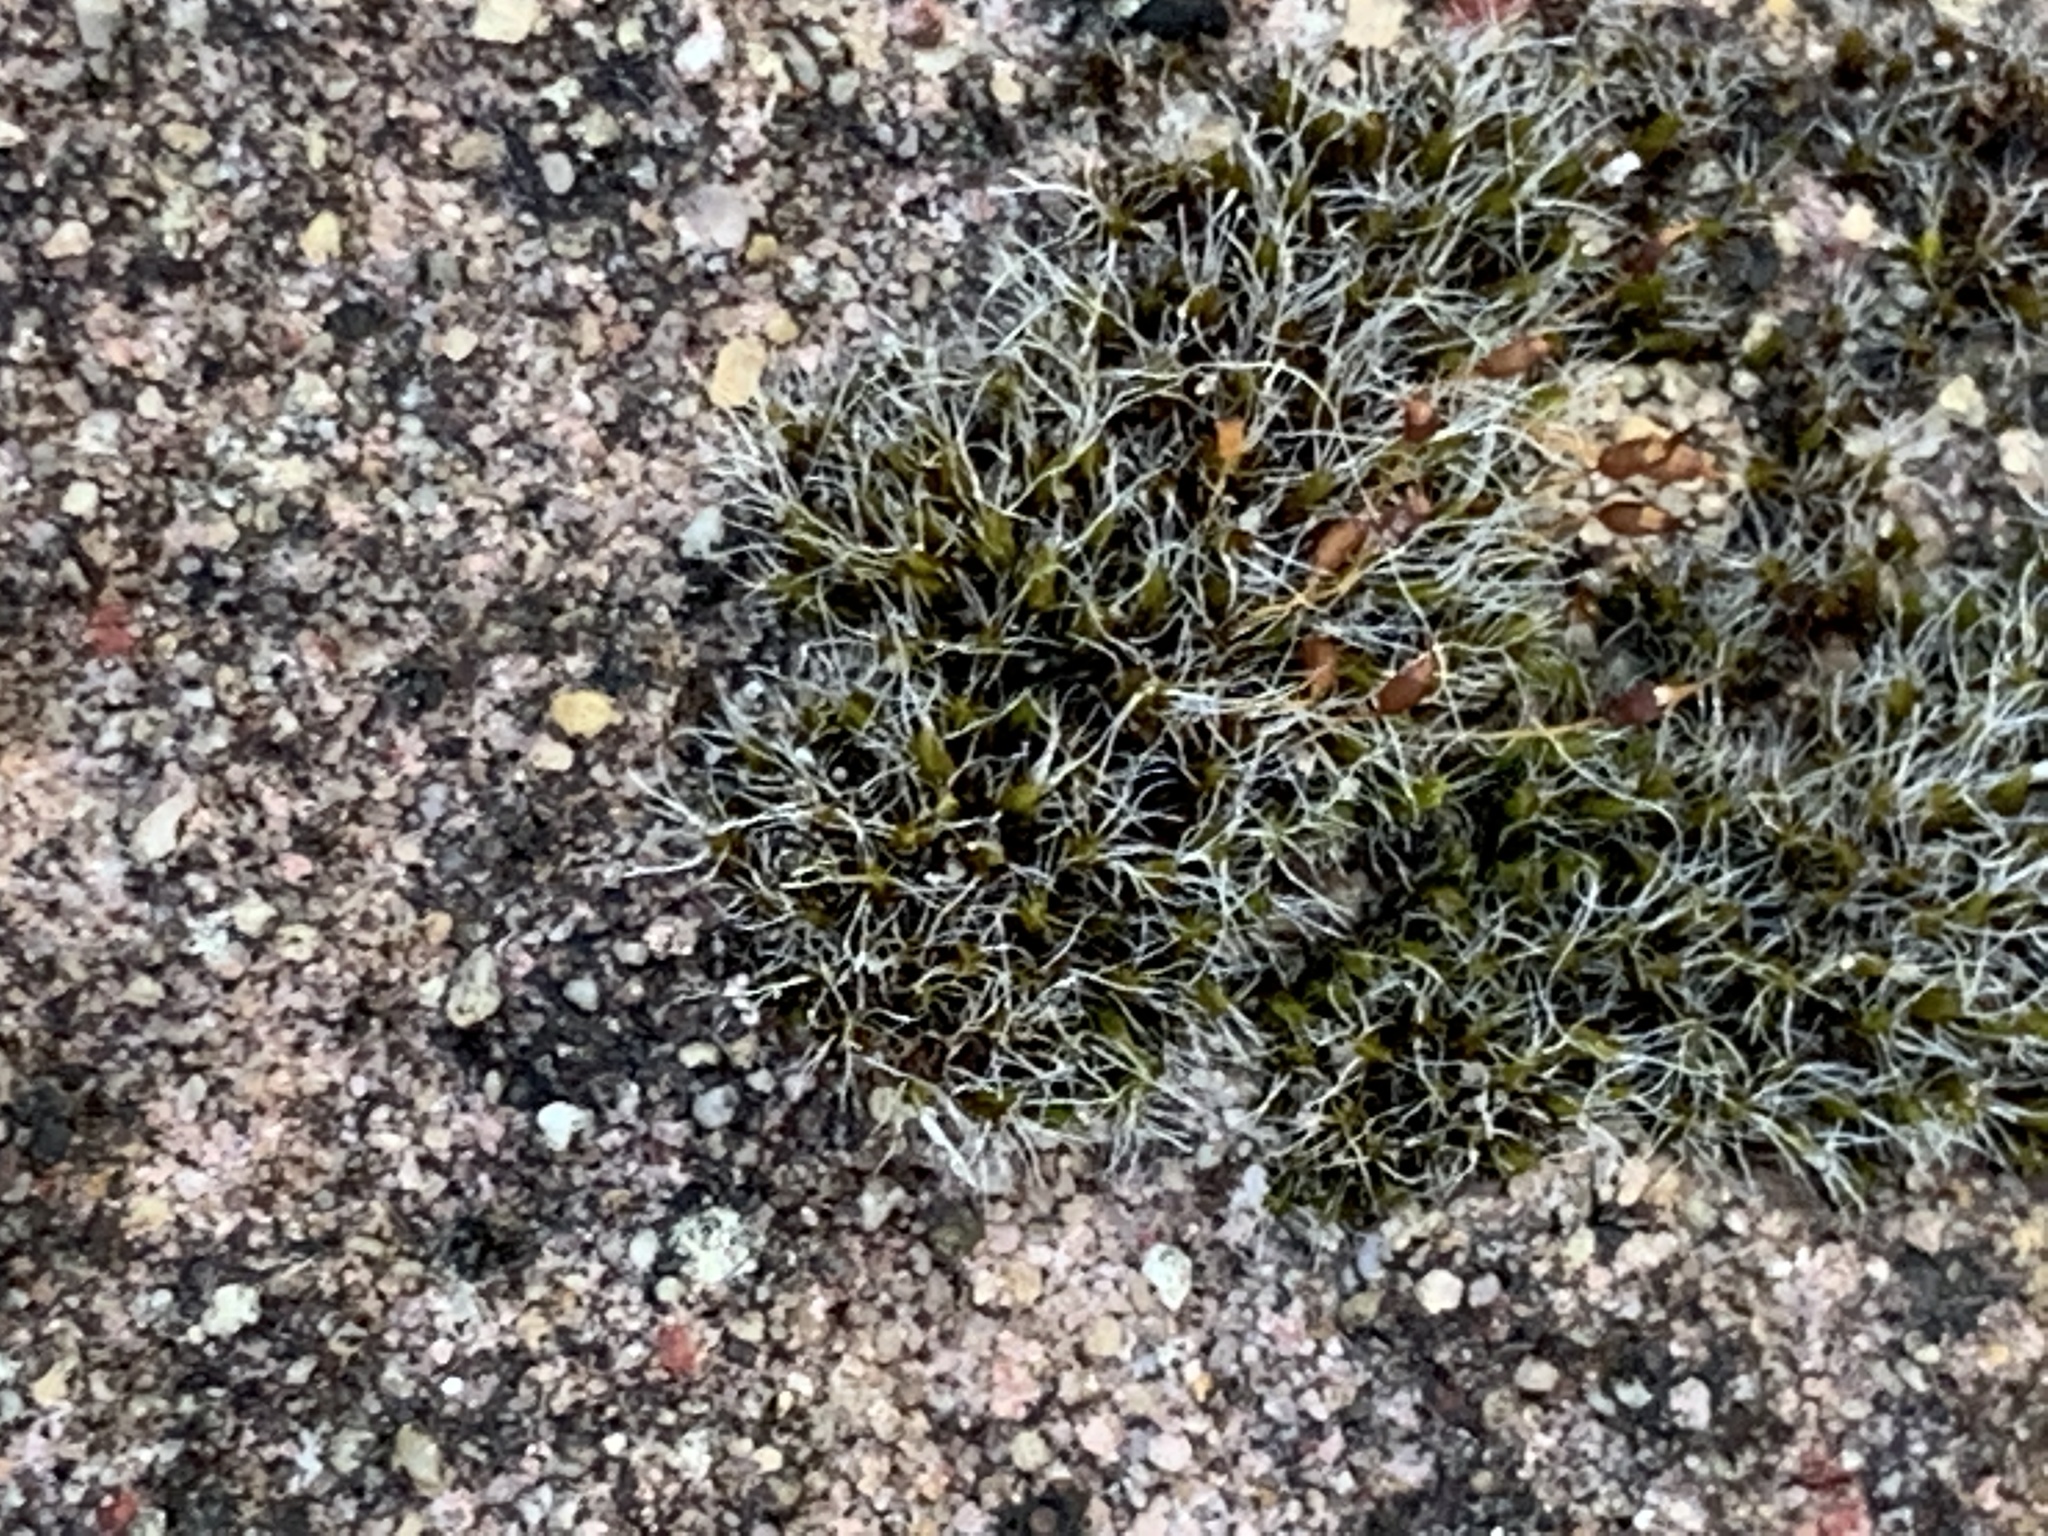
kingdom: Plantae
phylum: Bryophyta
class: Bryopsida
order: Grimmiales
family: Grimmiaceae
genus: Grimmia
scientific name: Grimmia pulvinata
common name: Grey-cushioned grimmia
